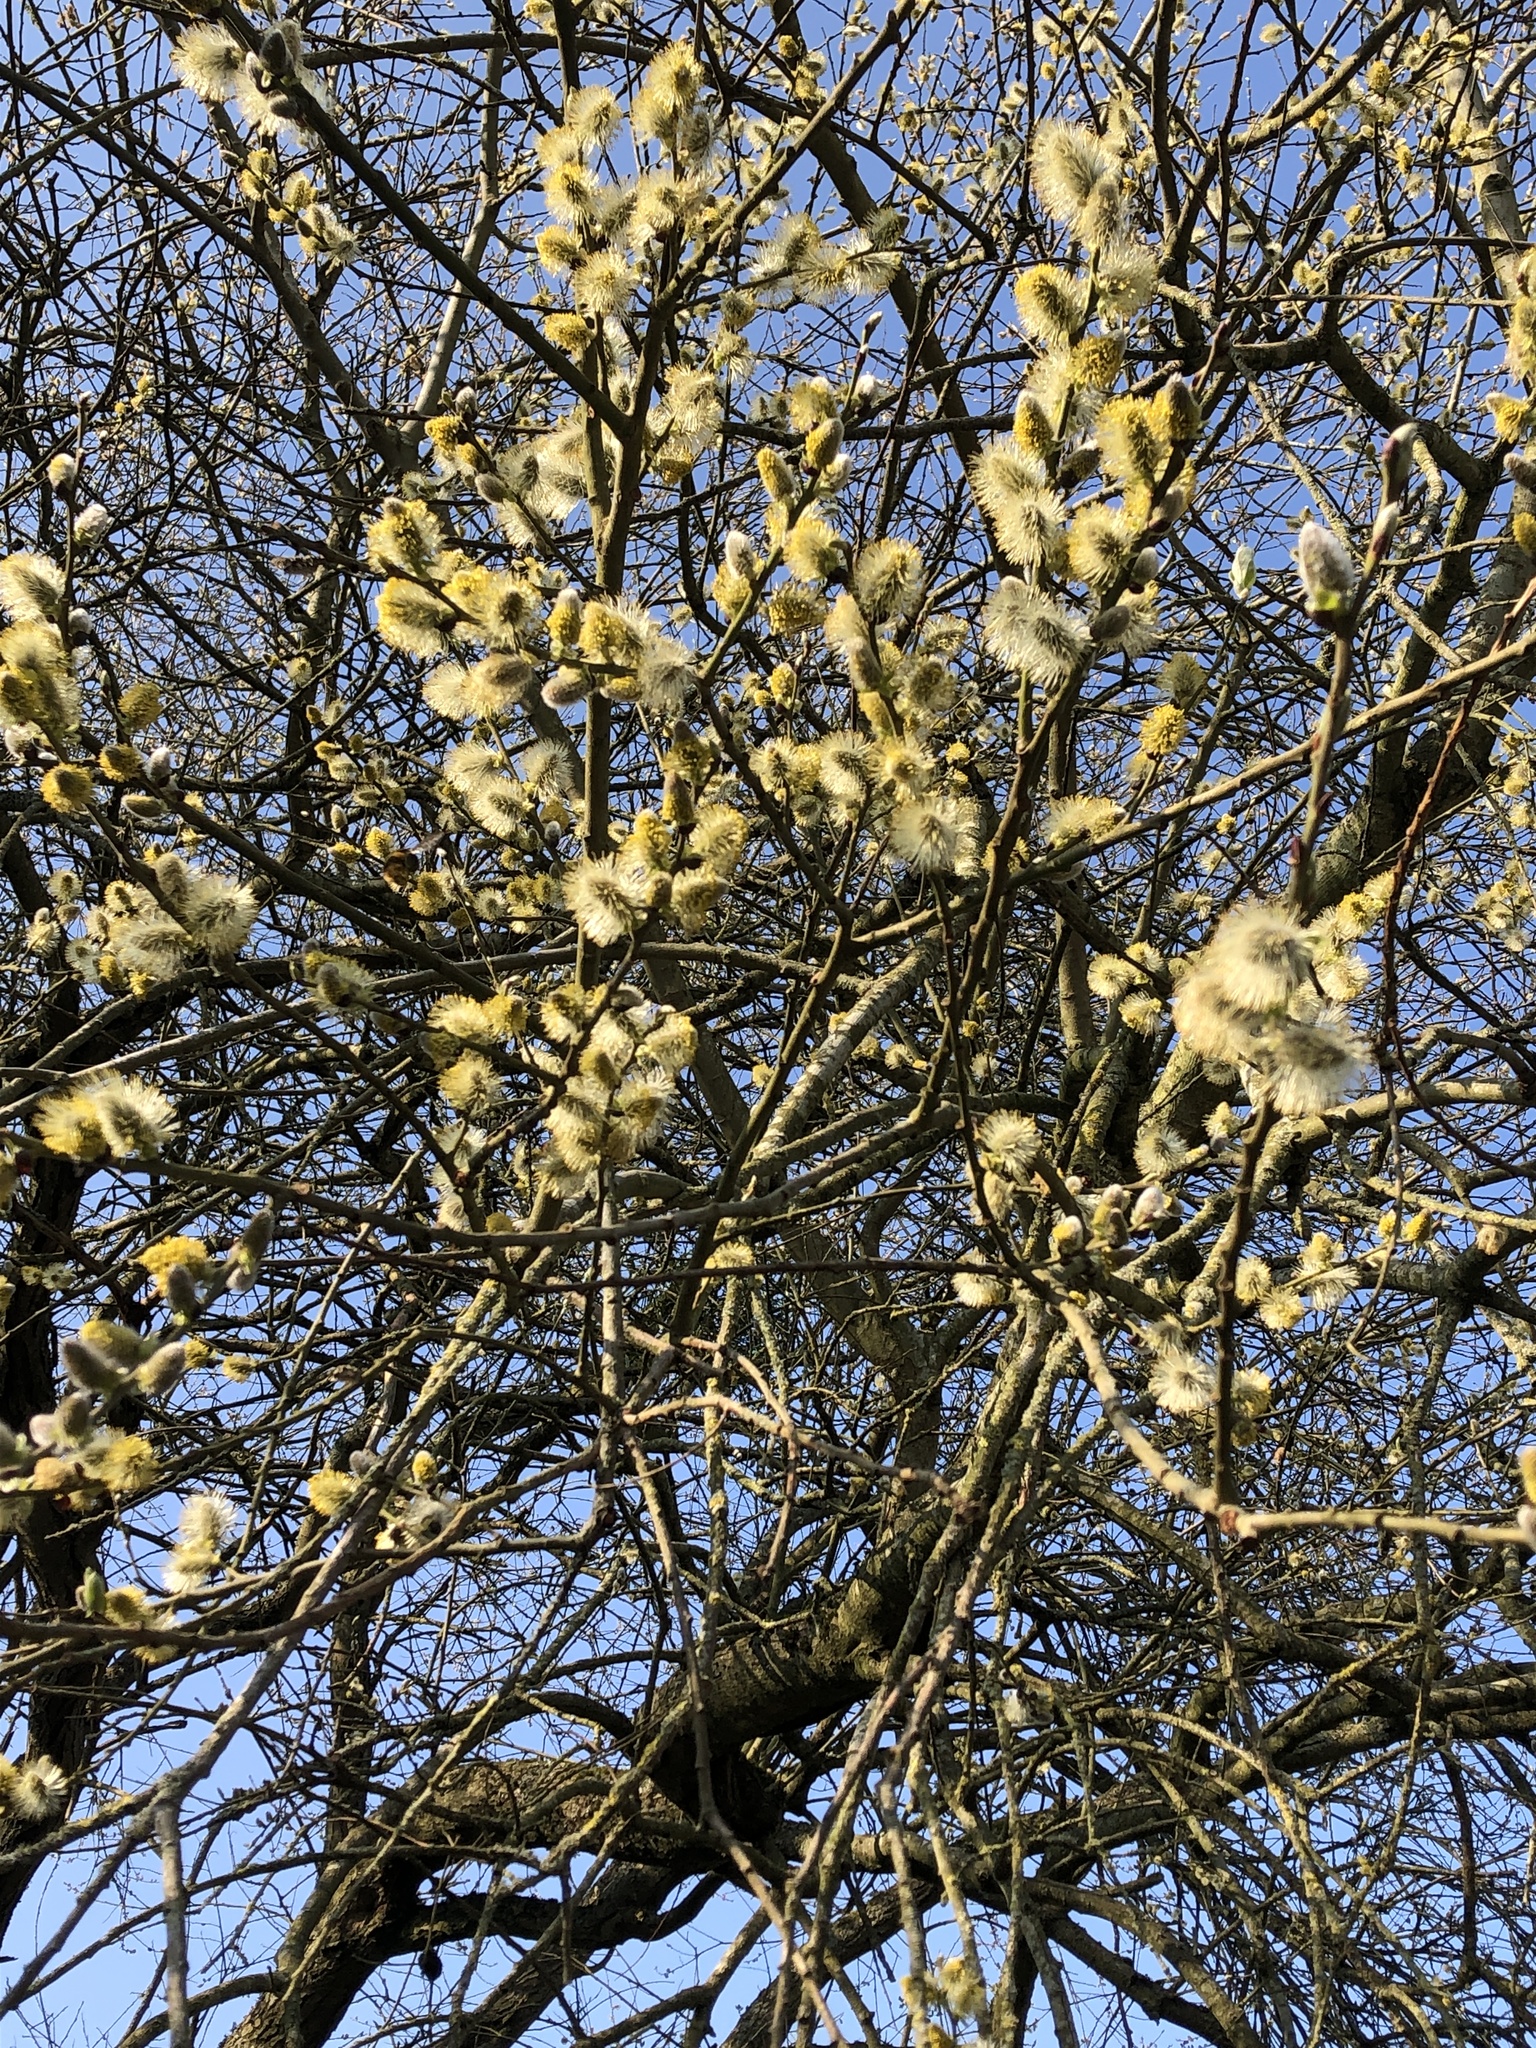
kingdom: Plantae
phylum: Tracheophyta
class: Magnoliopsida
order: Malpighiales
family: Salicaceae
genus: Salix
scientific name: Salix caprea
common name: Goat willow
